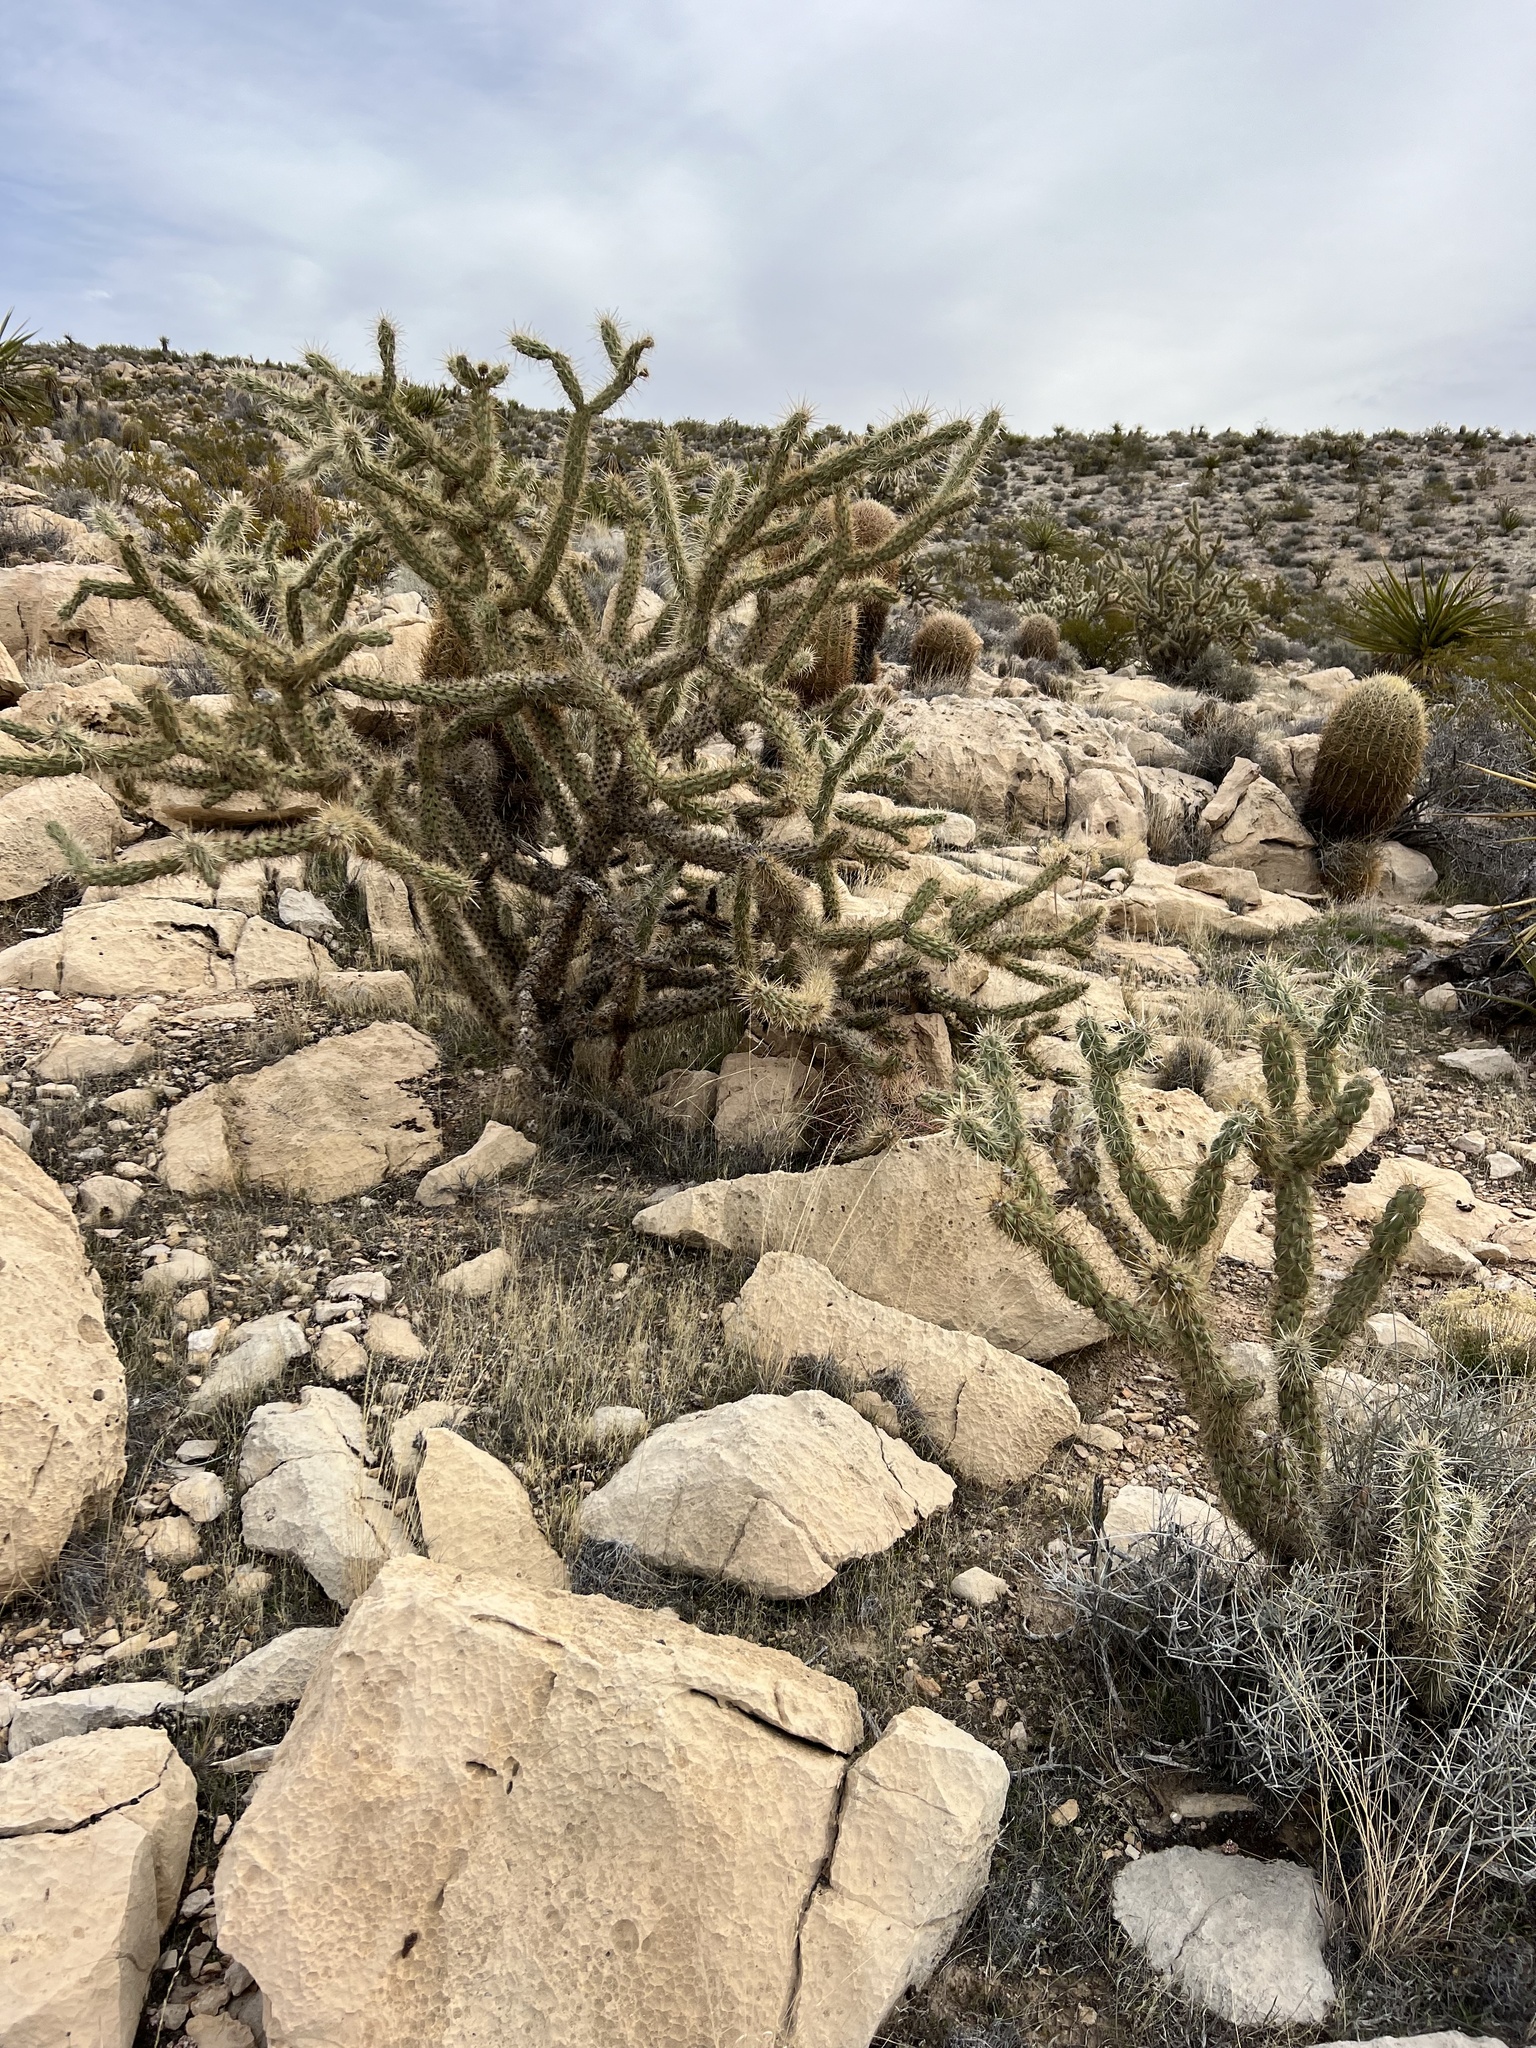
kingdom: Plantae
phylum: Tracheophyta
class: Magnoliopsida
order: Caryophyllales
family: Cactaceae
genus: Cylindropuntia
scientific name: Cylindropuntia acanthocarpa
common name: Buckhorn cholla
